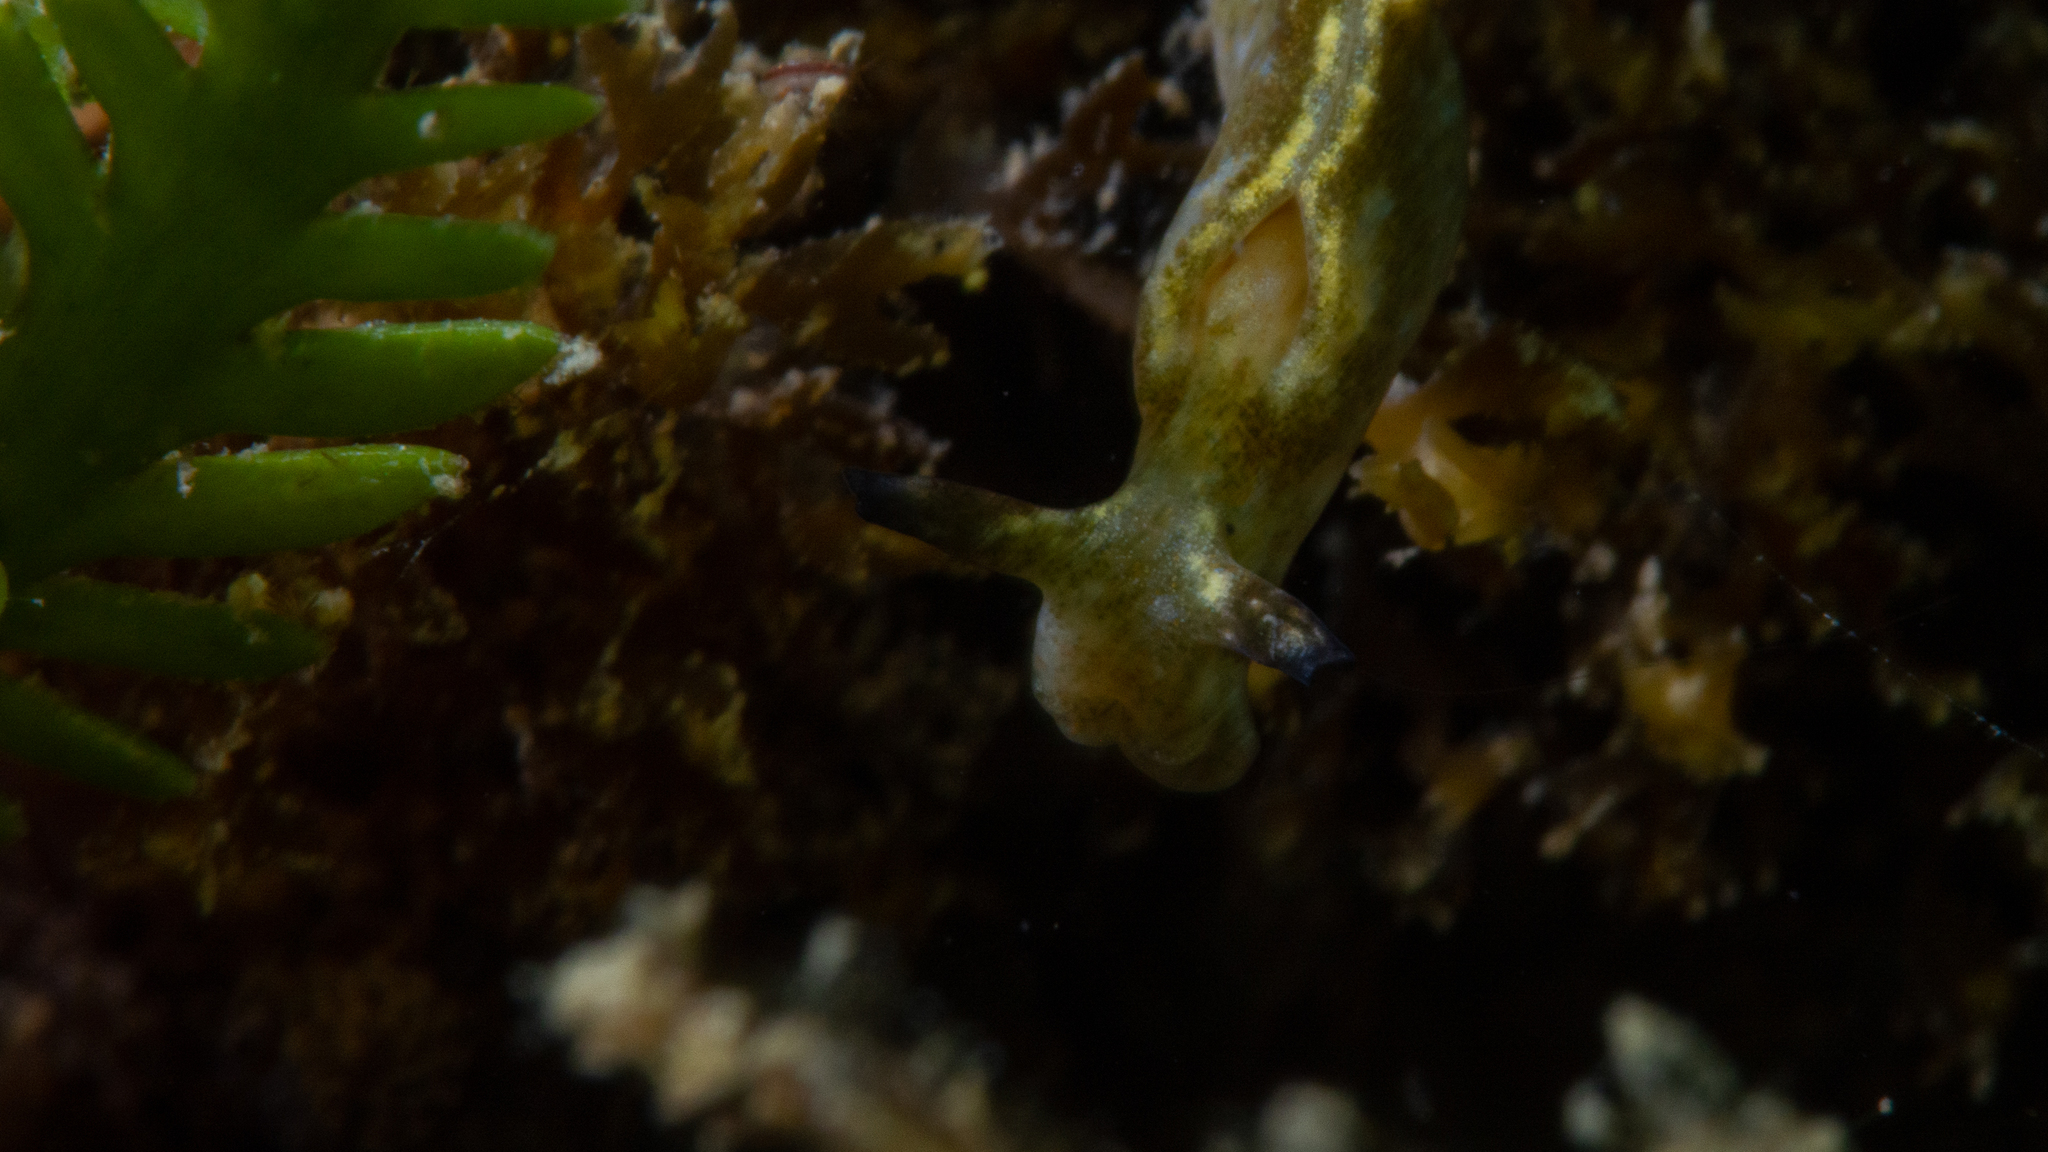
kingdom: Animalia
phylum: Mollusca
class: Gastropoda
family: Plakobranchidae
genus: Elysia
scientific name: Elysia furvacauda
